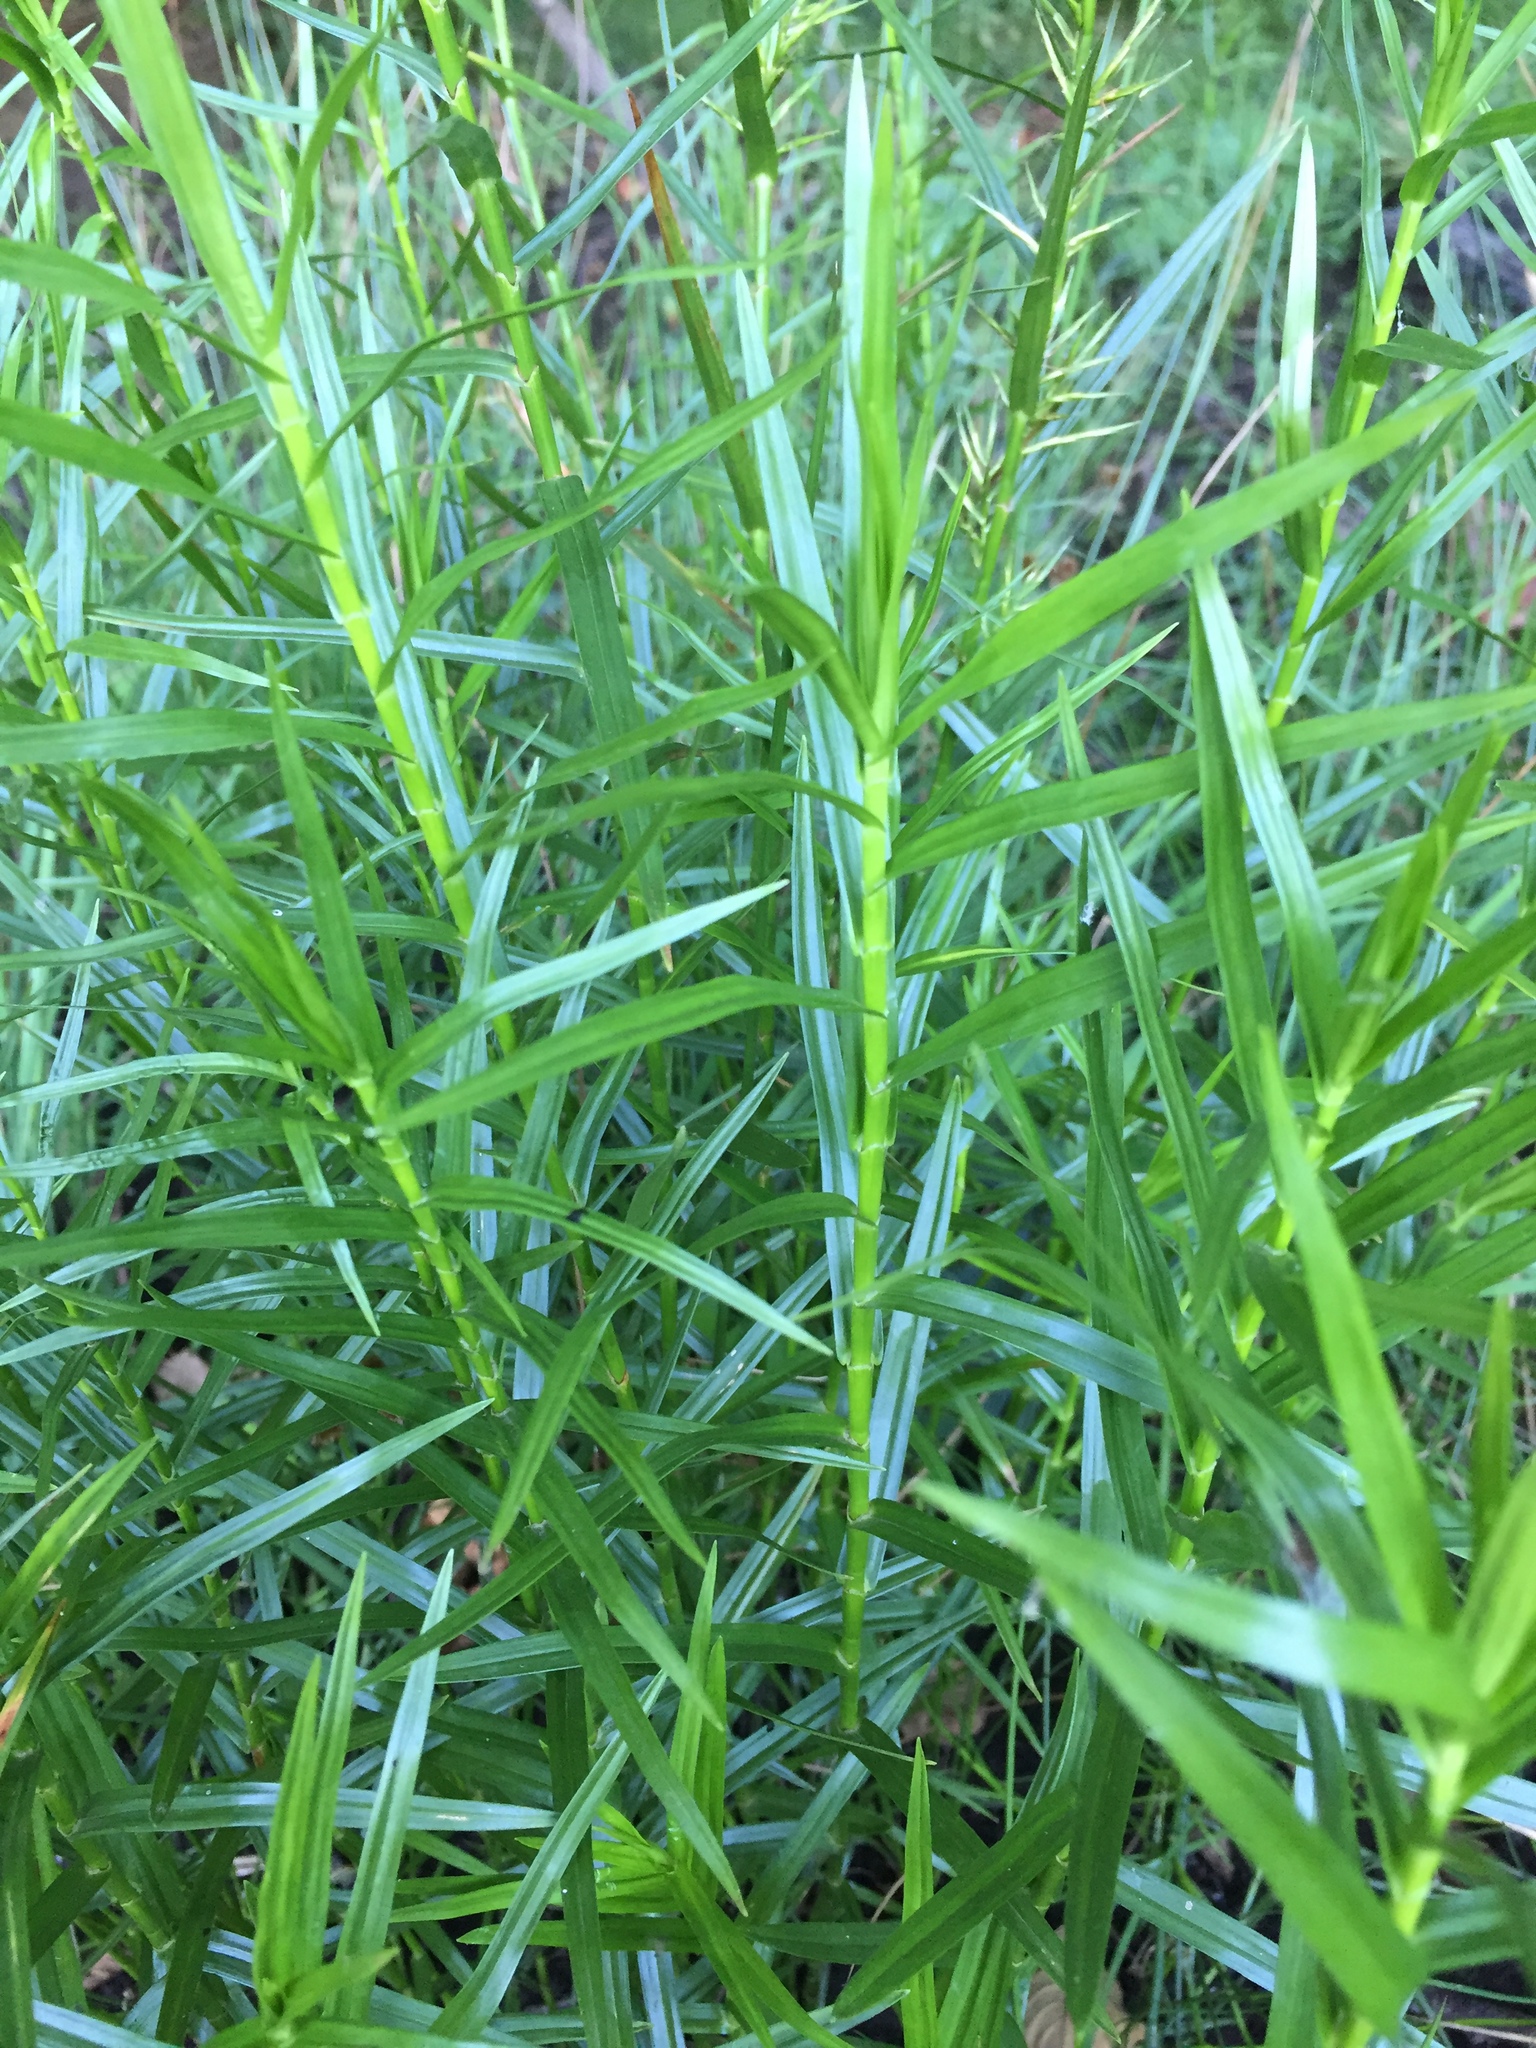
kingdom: Plantae
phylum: Tracheophyta
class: Liliopsida
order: Poales
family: Cyperaceae
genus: Dulichium
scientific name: Dulichium arundinaceum
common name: Three-way sedge
